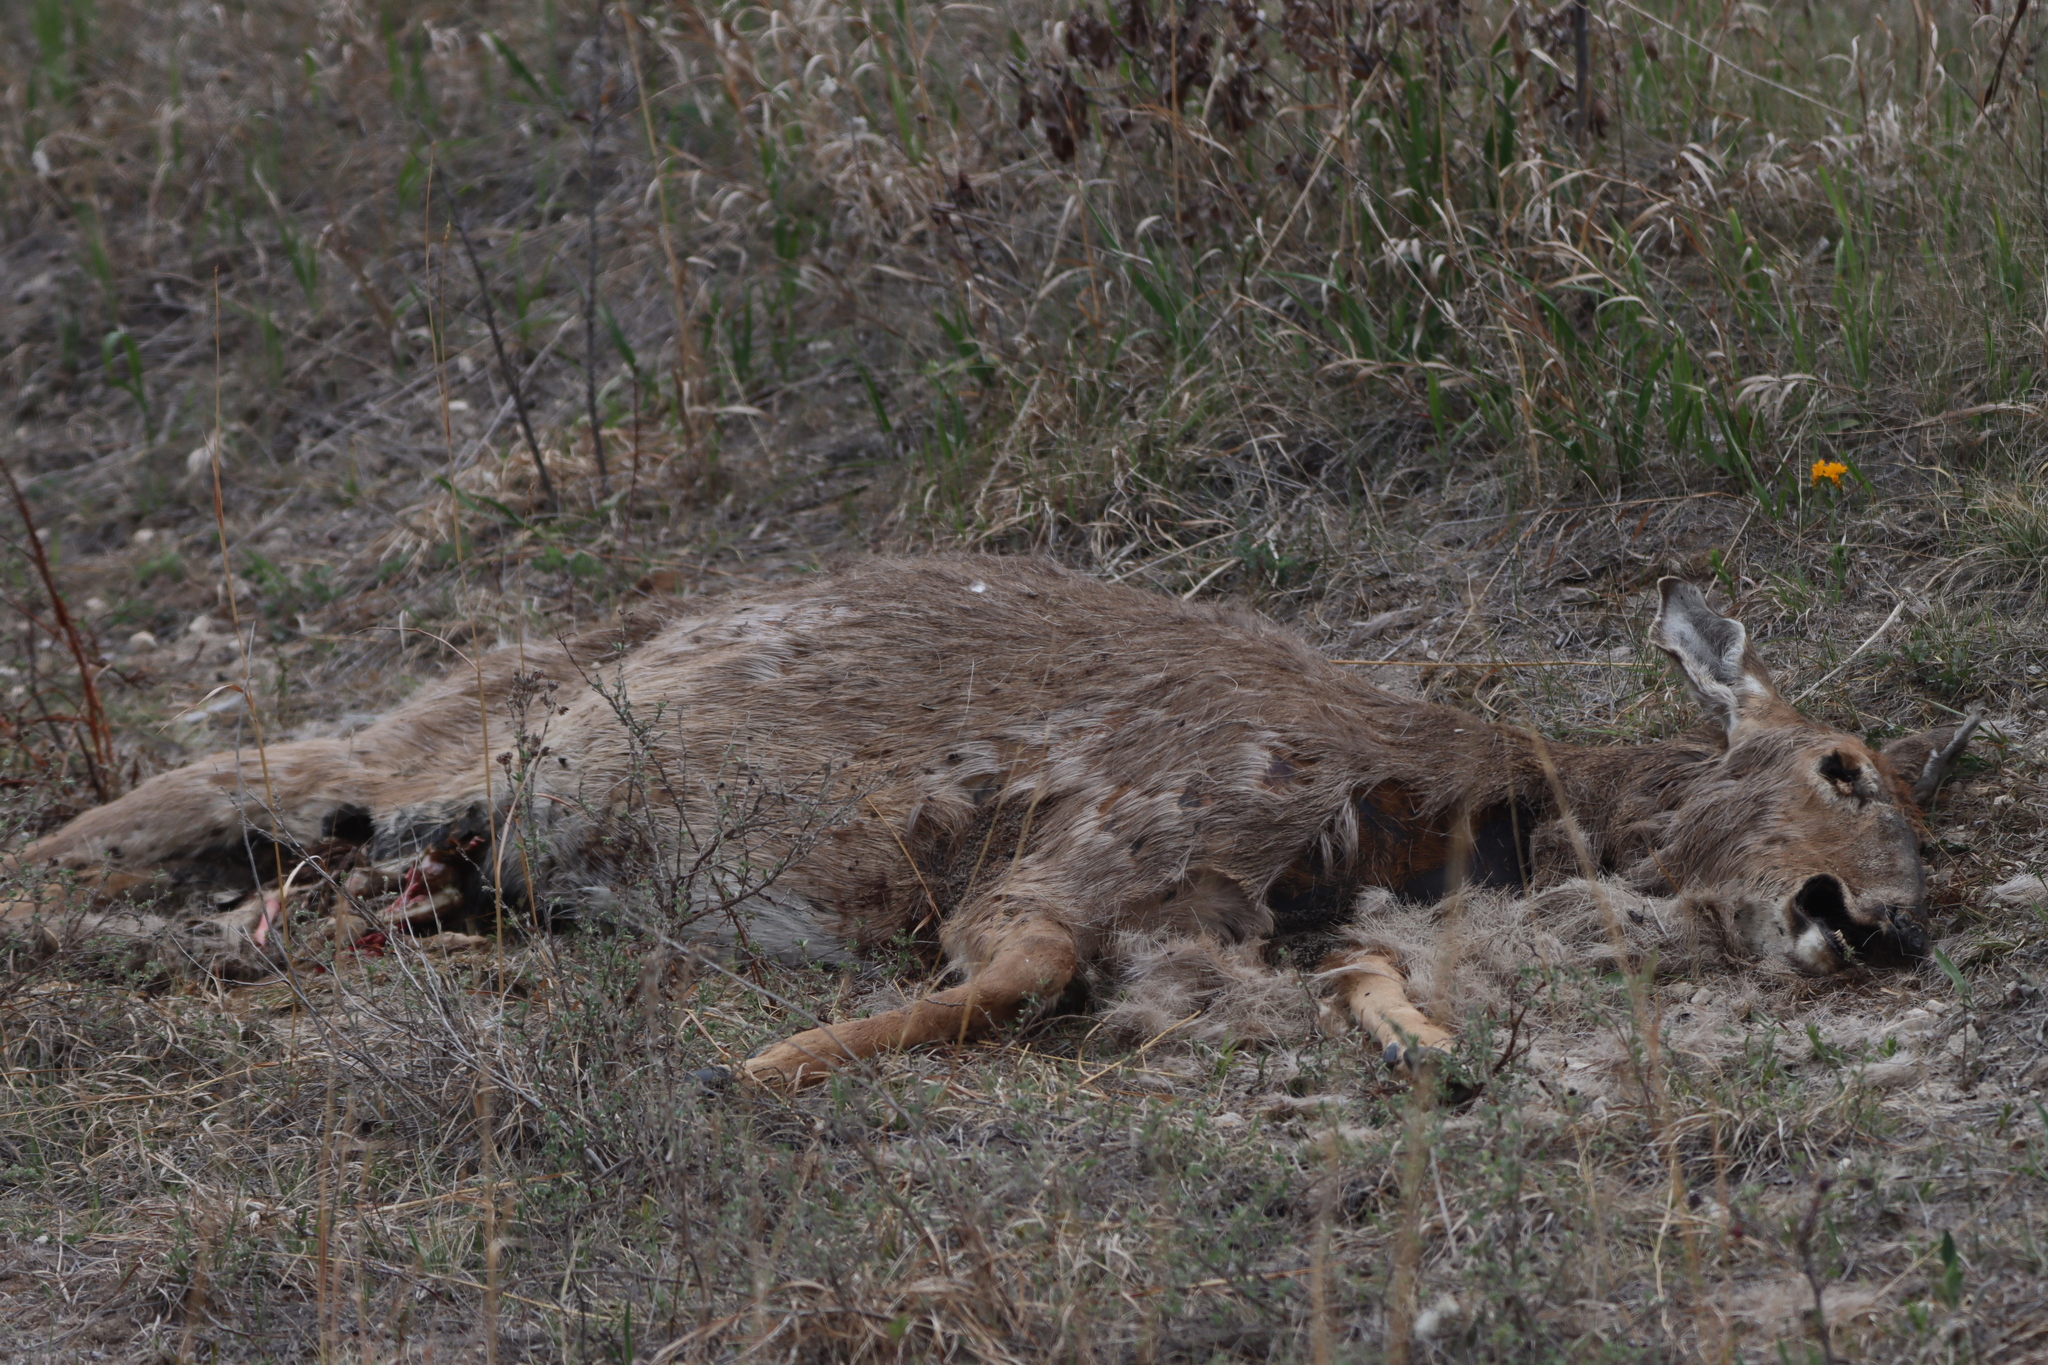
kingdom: Animalia
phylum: Chordata
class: Mammalia
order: Artiodactyla
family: Cervidae
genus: Odocoileus
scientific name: Odocoileus virginianus
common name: White-tailed deer
